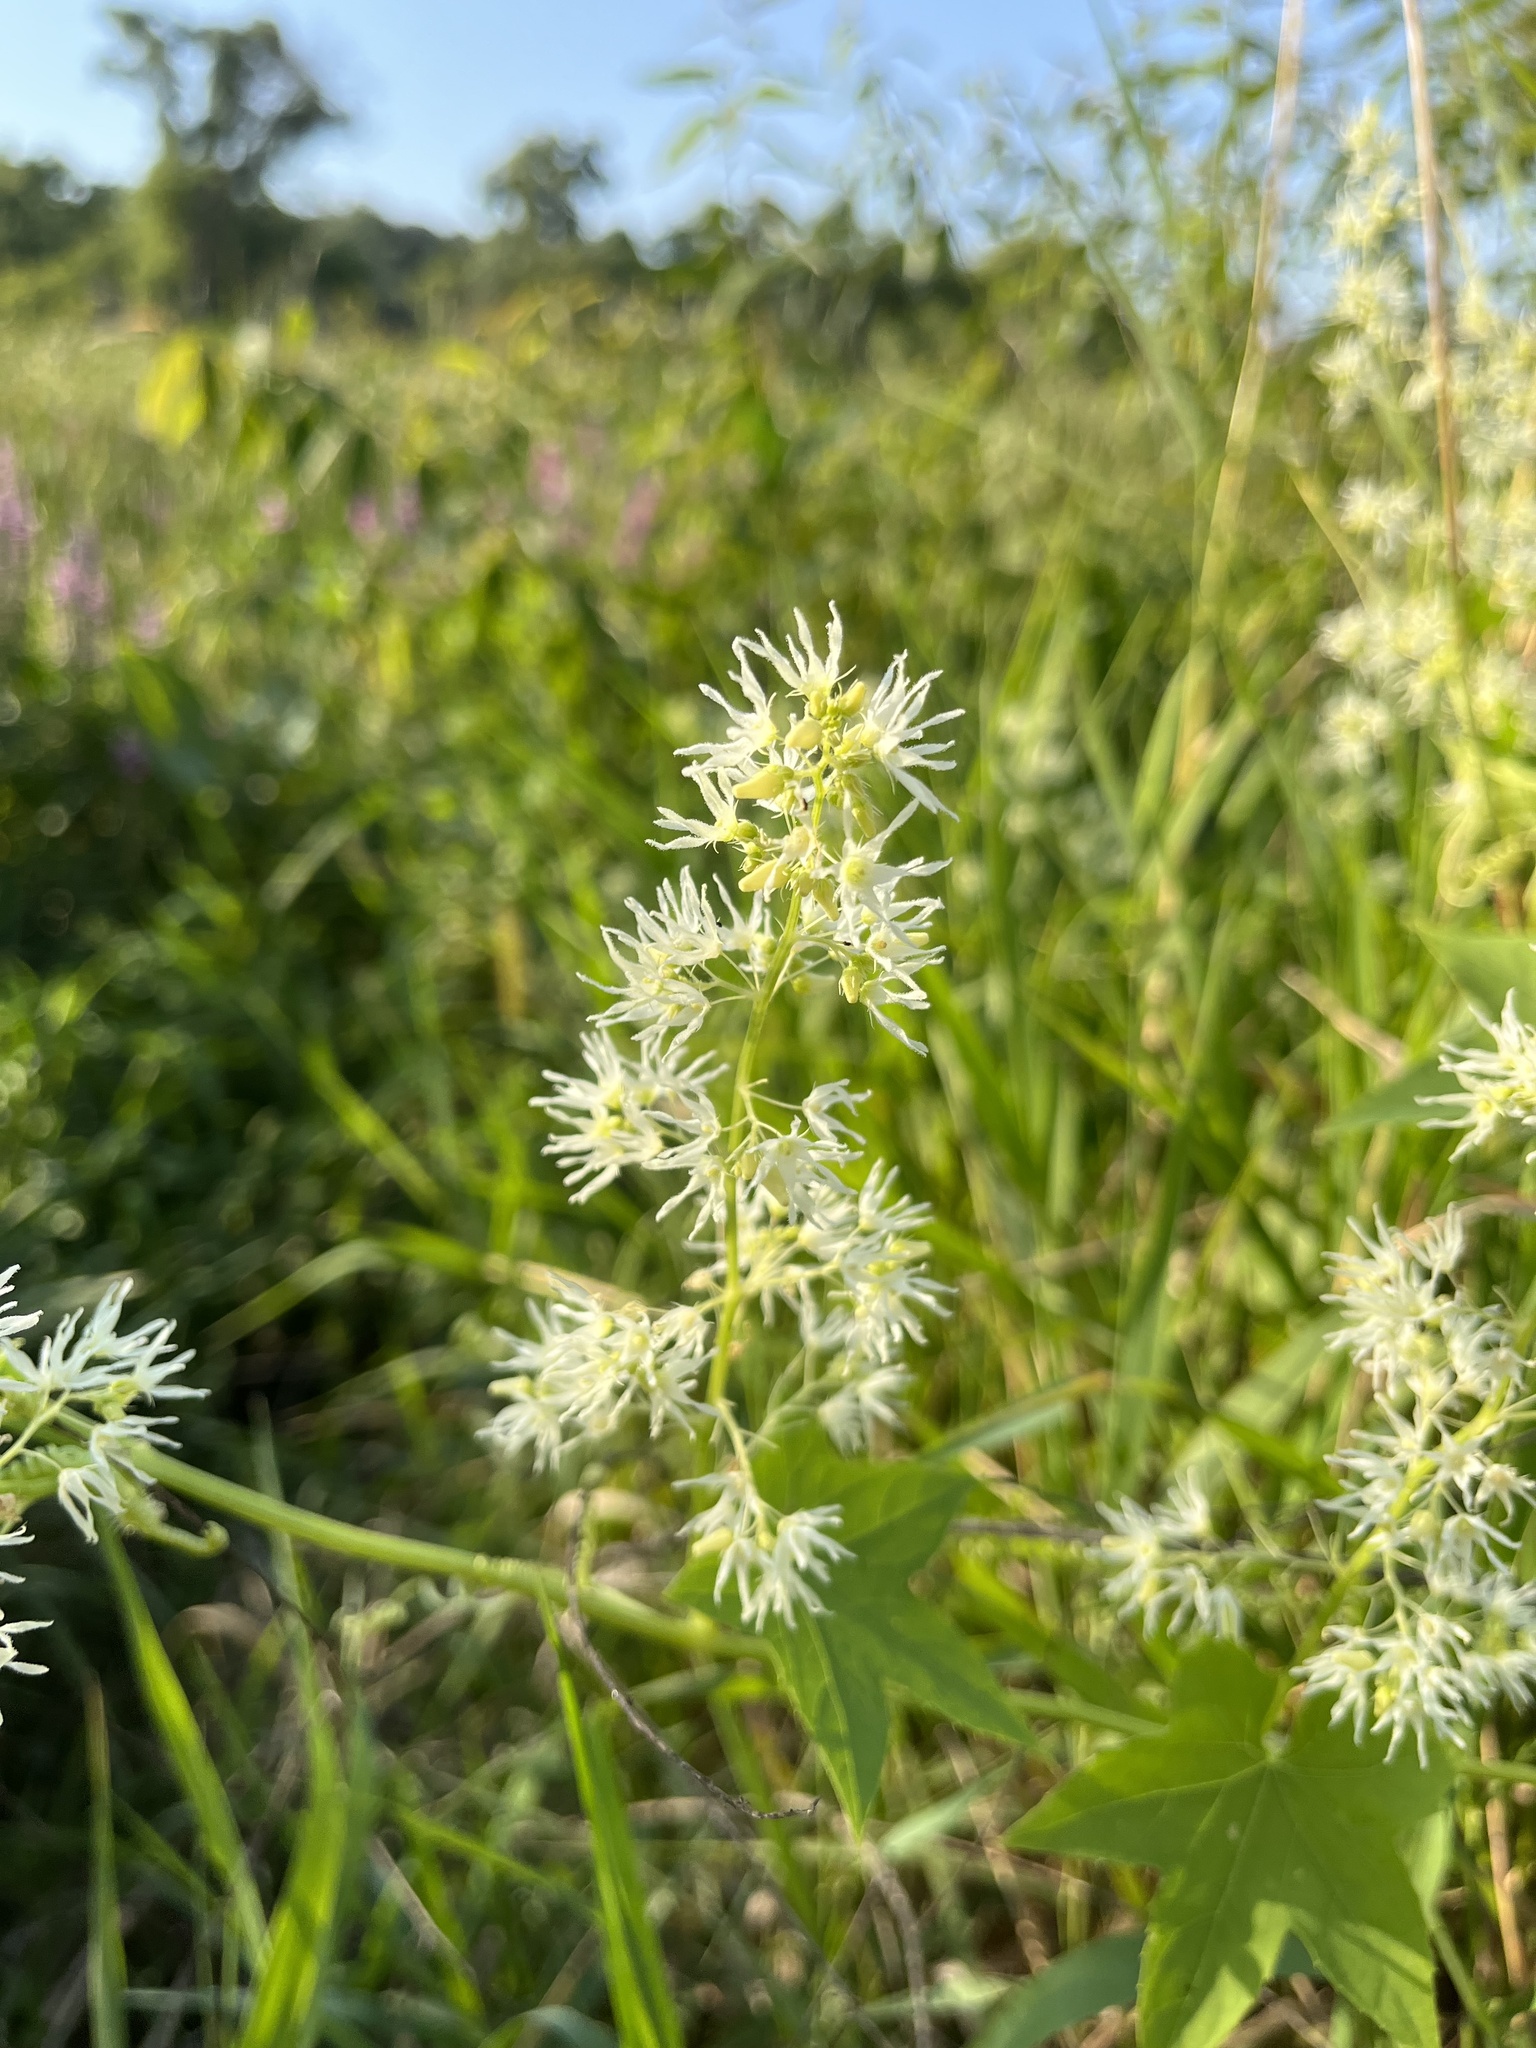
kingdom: Plantae
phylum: Tracheophyta
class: Magnoliopsida
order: Cucurbitales
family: Cucurbitaceae
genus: Echinocystis
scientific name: Echinocystis lobata
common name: Wild cucumber
